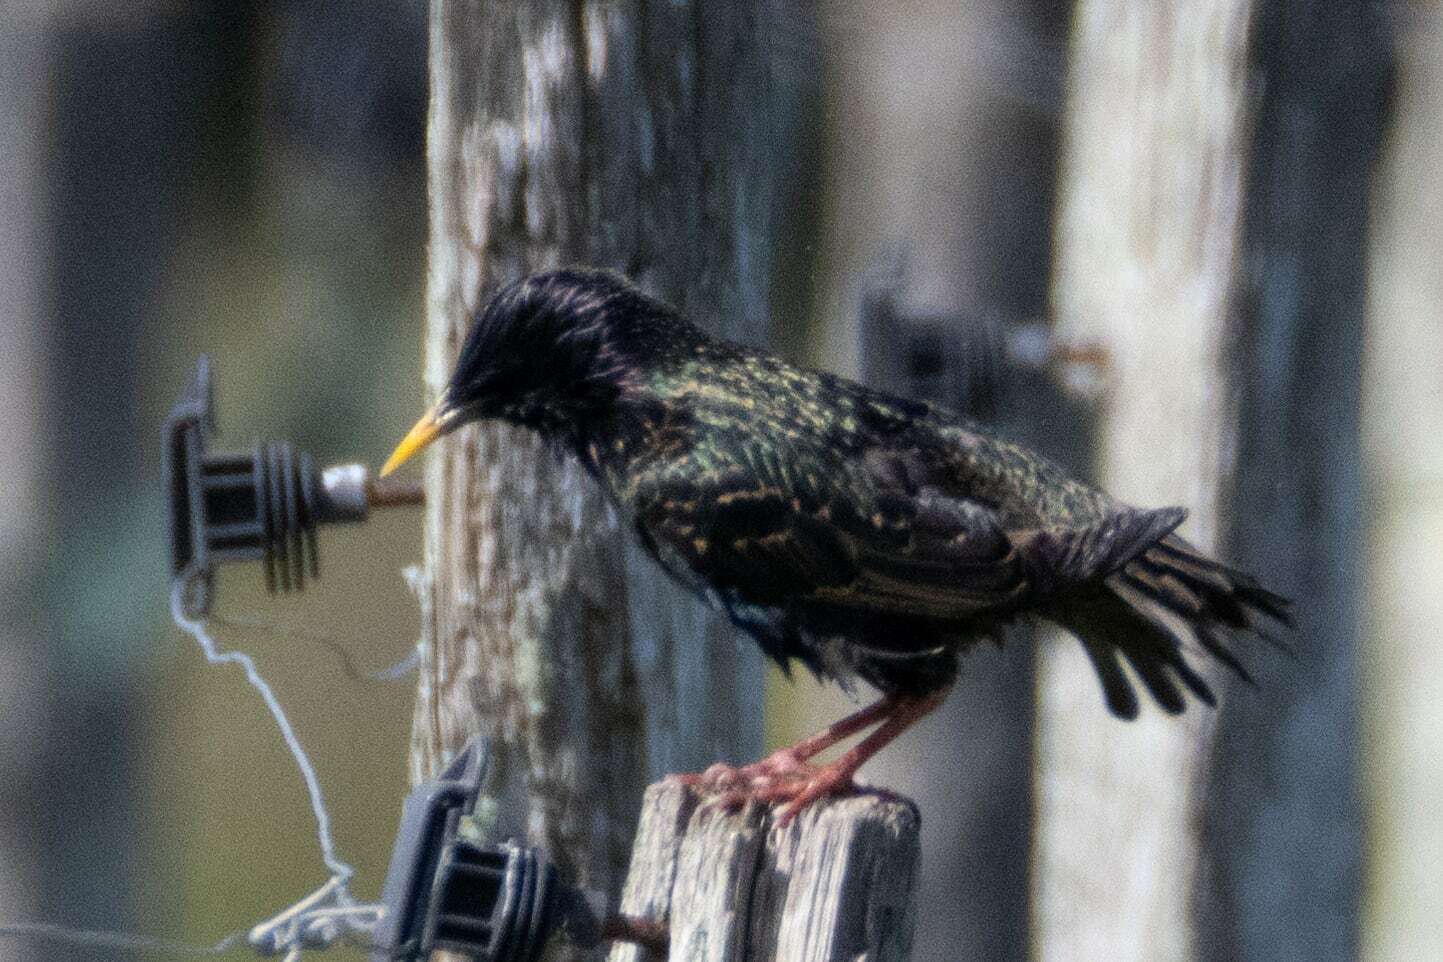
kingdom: Animalia
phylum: Chordata
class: Aves
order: Passeriformes
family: Sturnidae
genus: Sturnus
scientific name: Sturnus vulgaris
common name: Common starling
